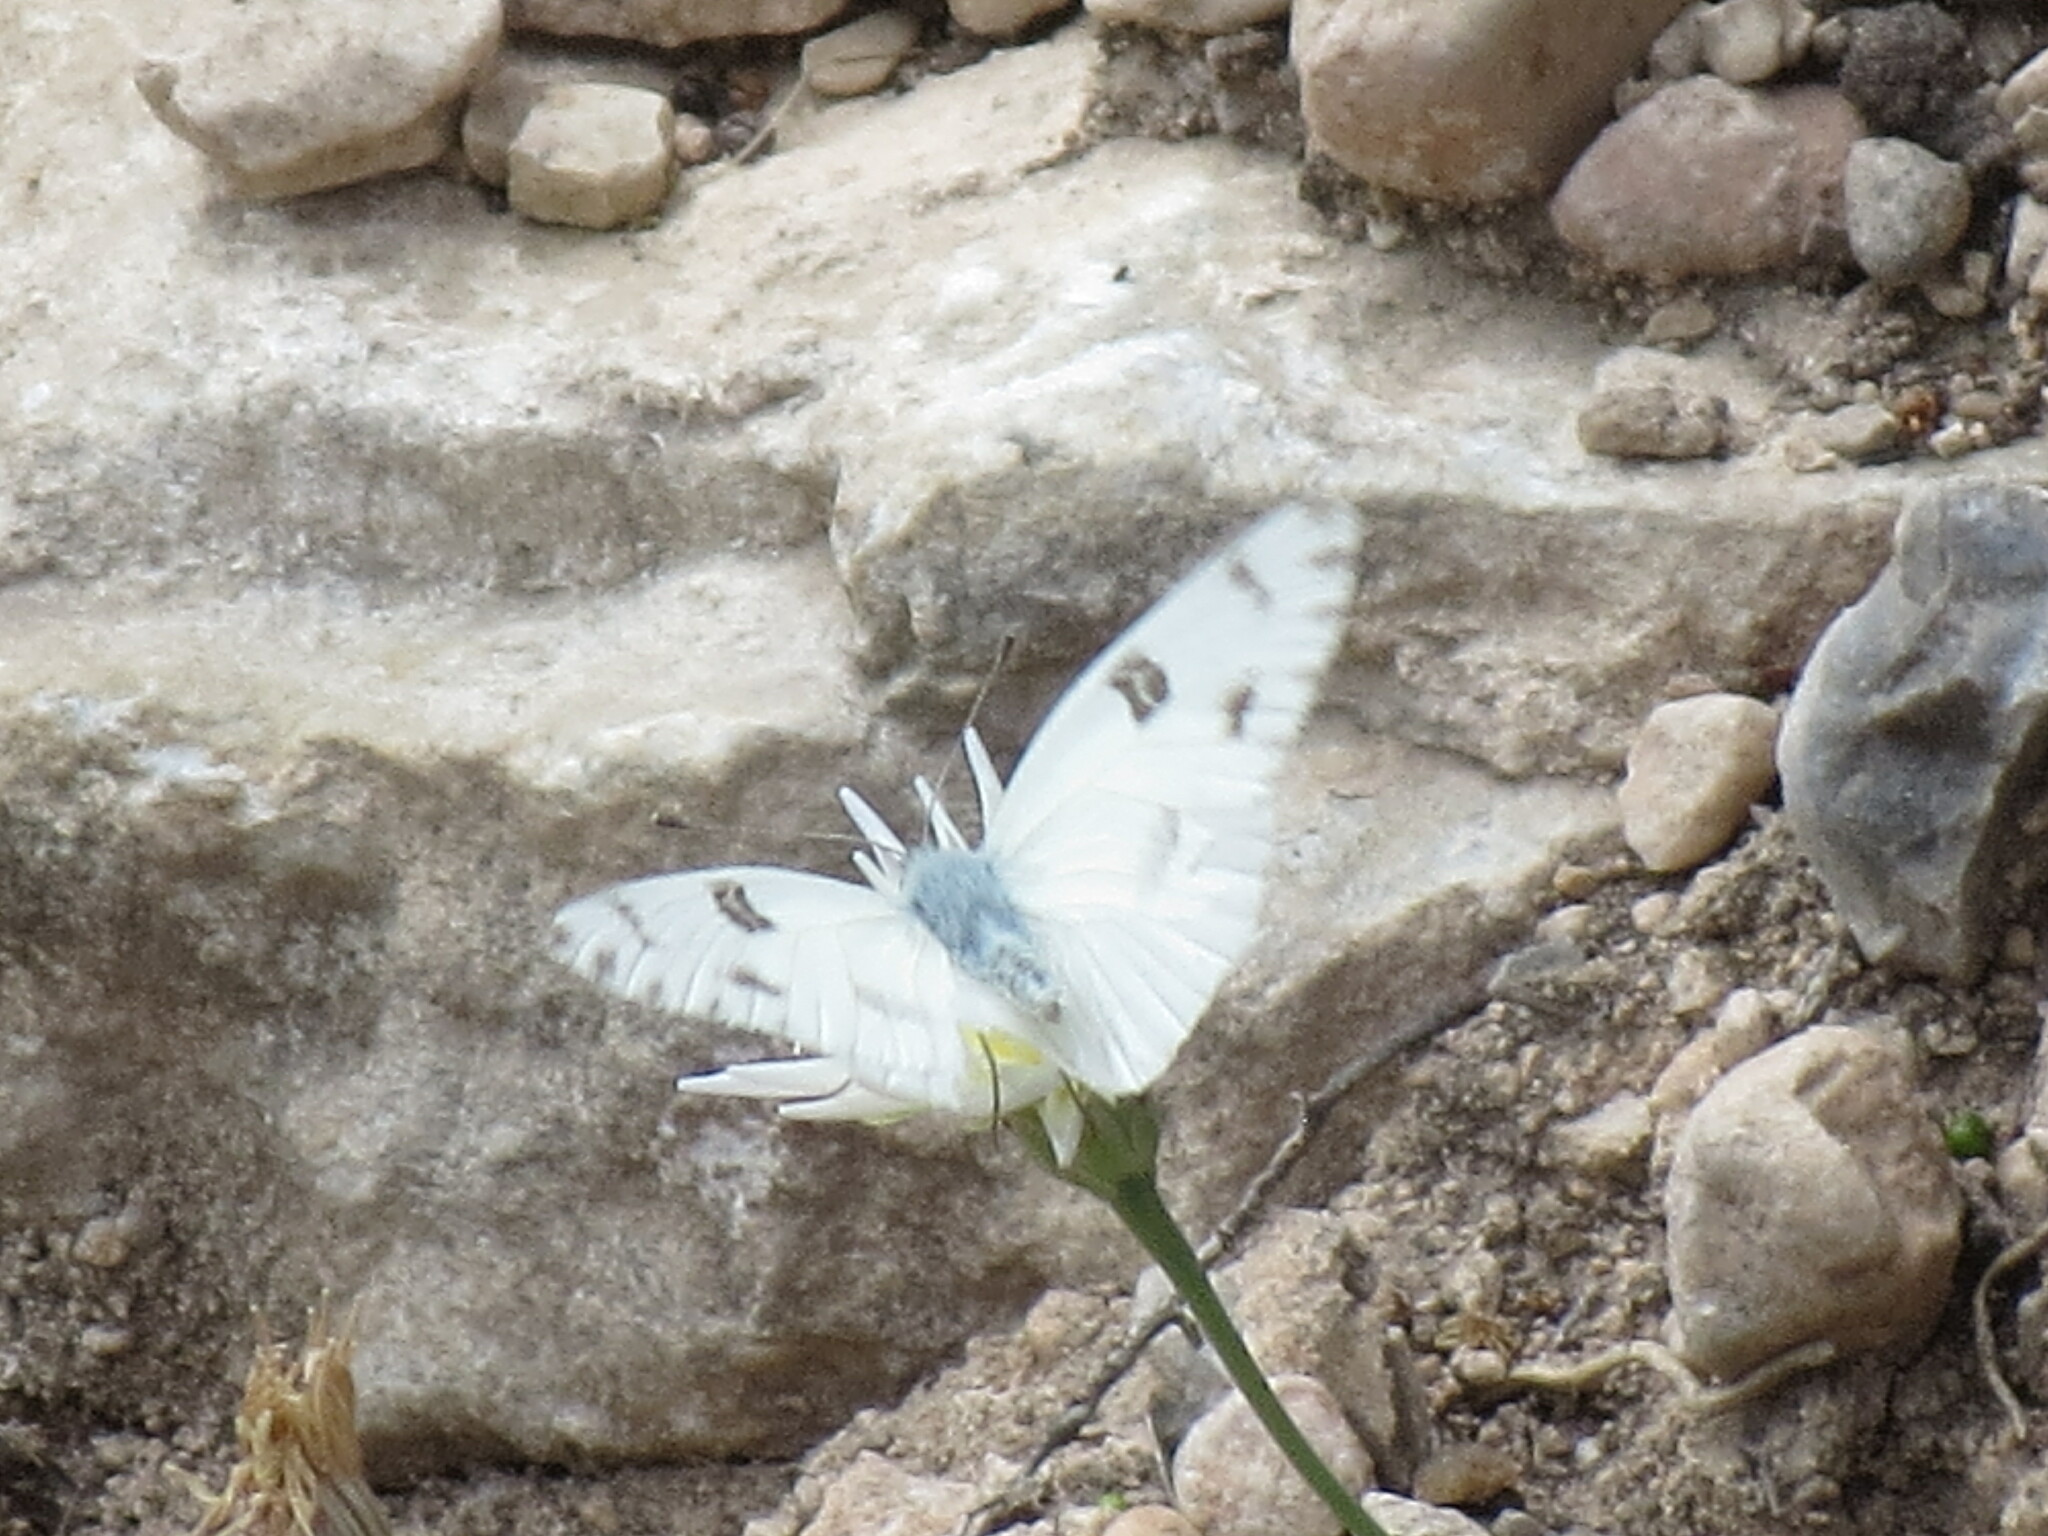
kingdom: Animalia
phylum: Arthropoda
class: Insecta
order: Lepidoptera
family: Pieridae
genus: Pontia
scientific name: Pontia protodice
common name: Checkered white
